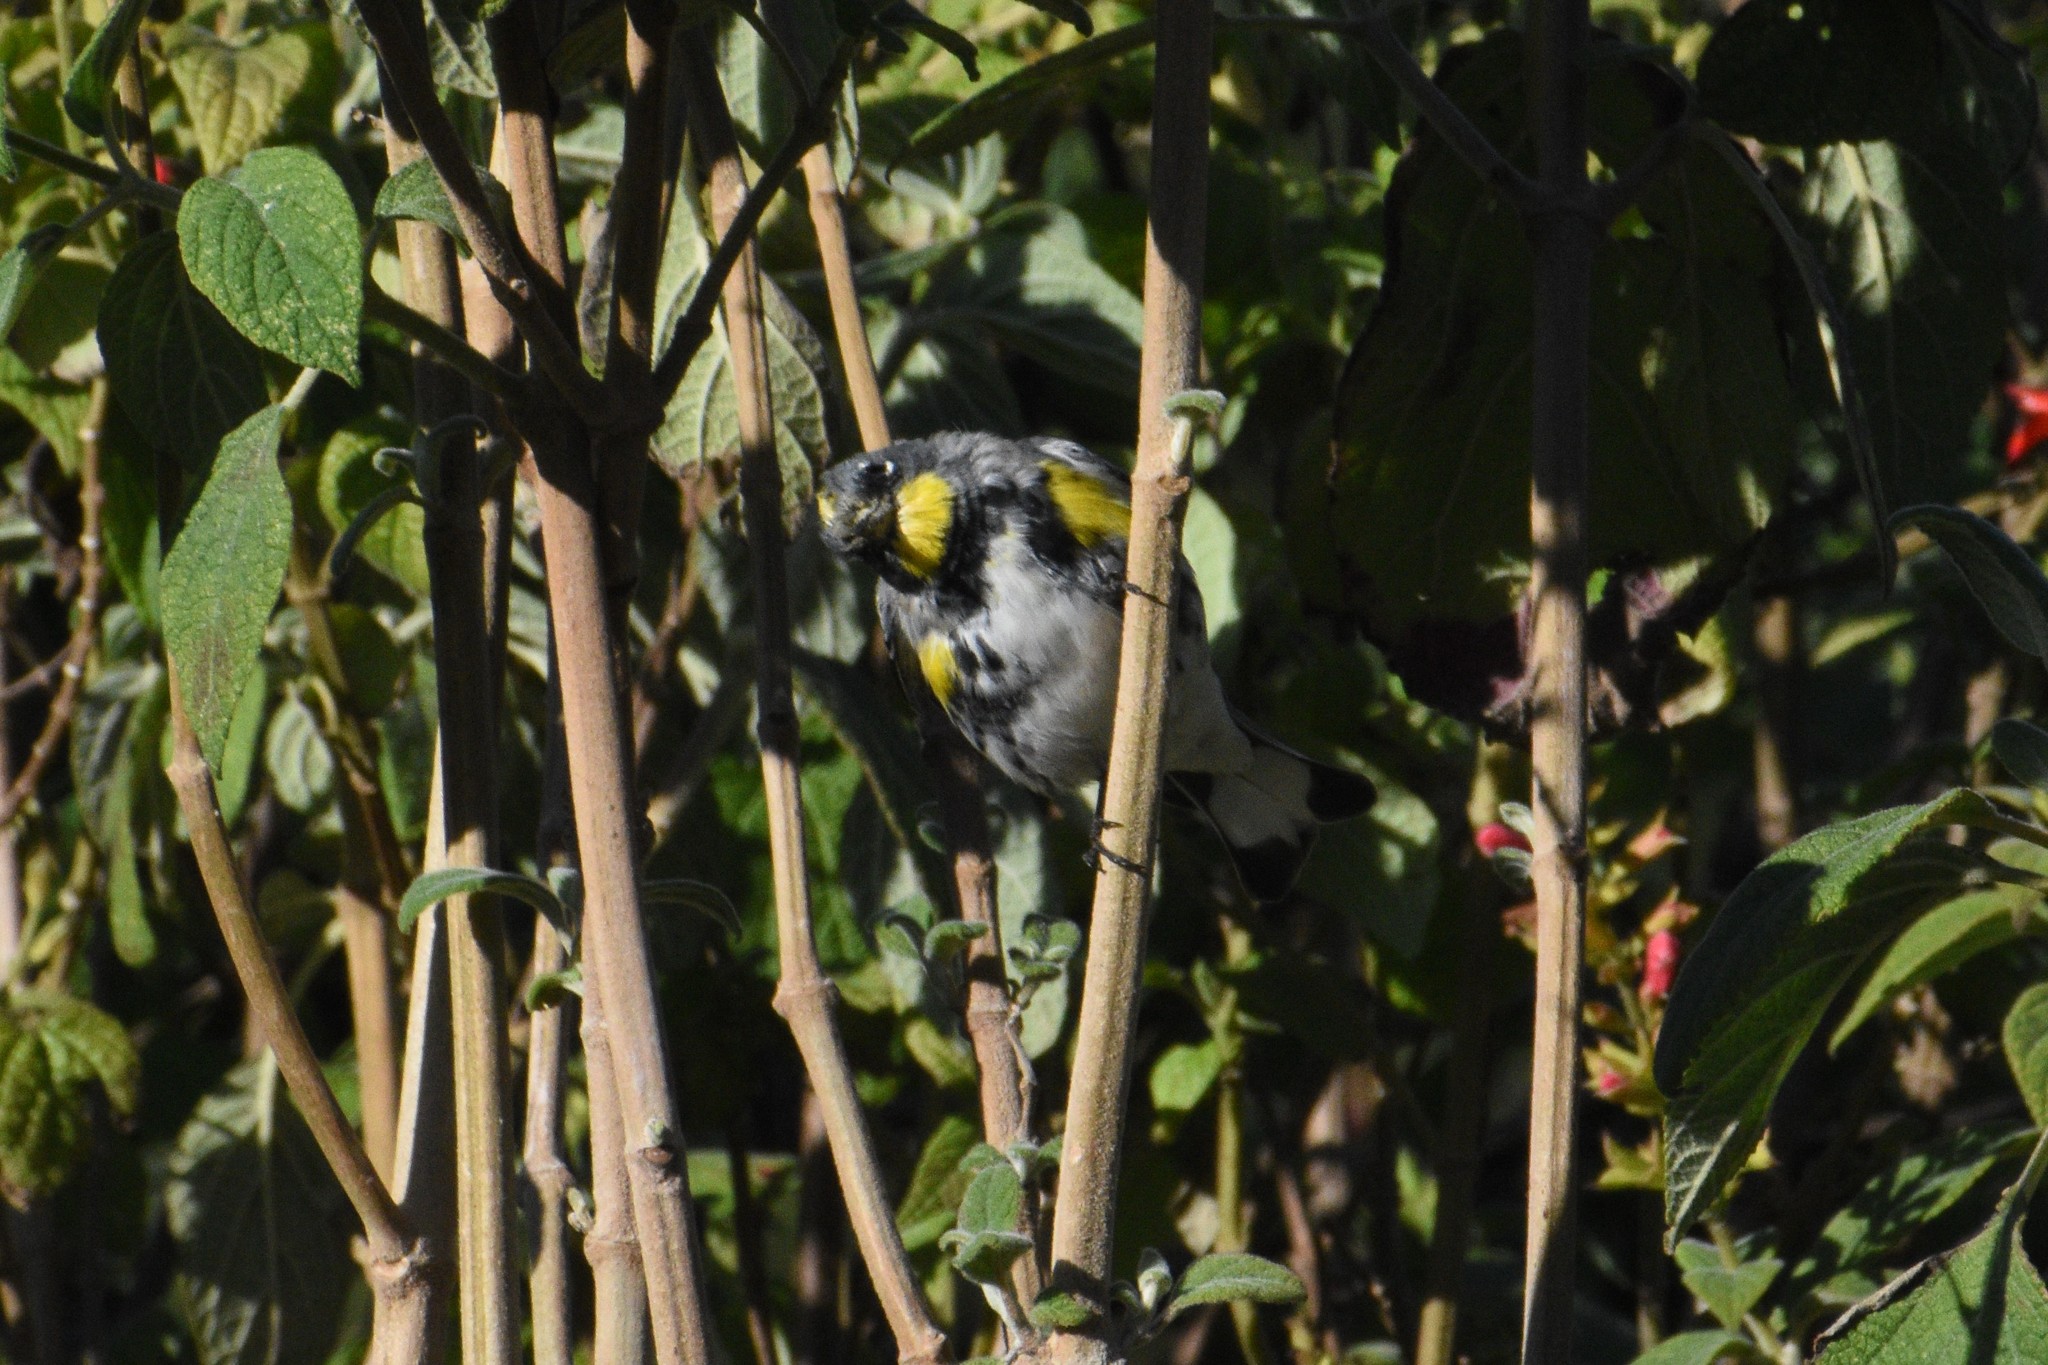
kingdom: Animalia
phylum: Chordata
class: Aves
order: Passeriformes
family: Parulidae
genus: Setophaga
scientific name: Setophaga coronata
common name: Myrtle warbler
